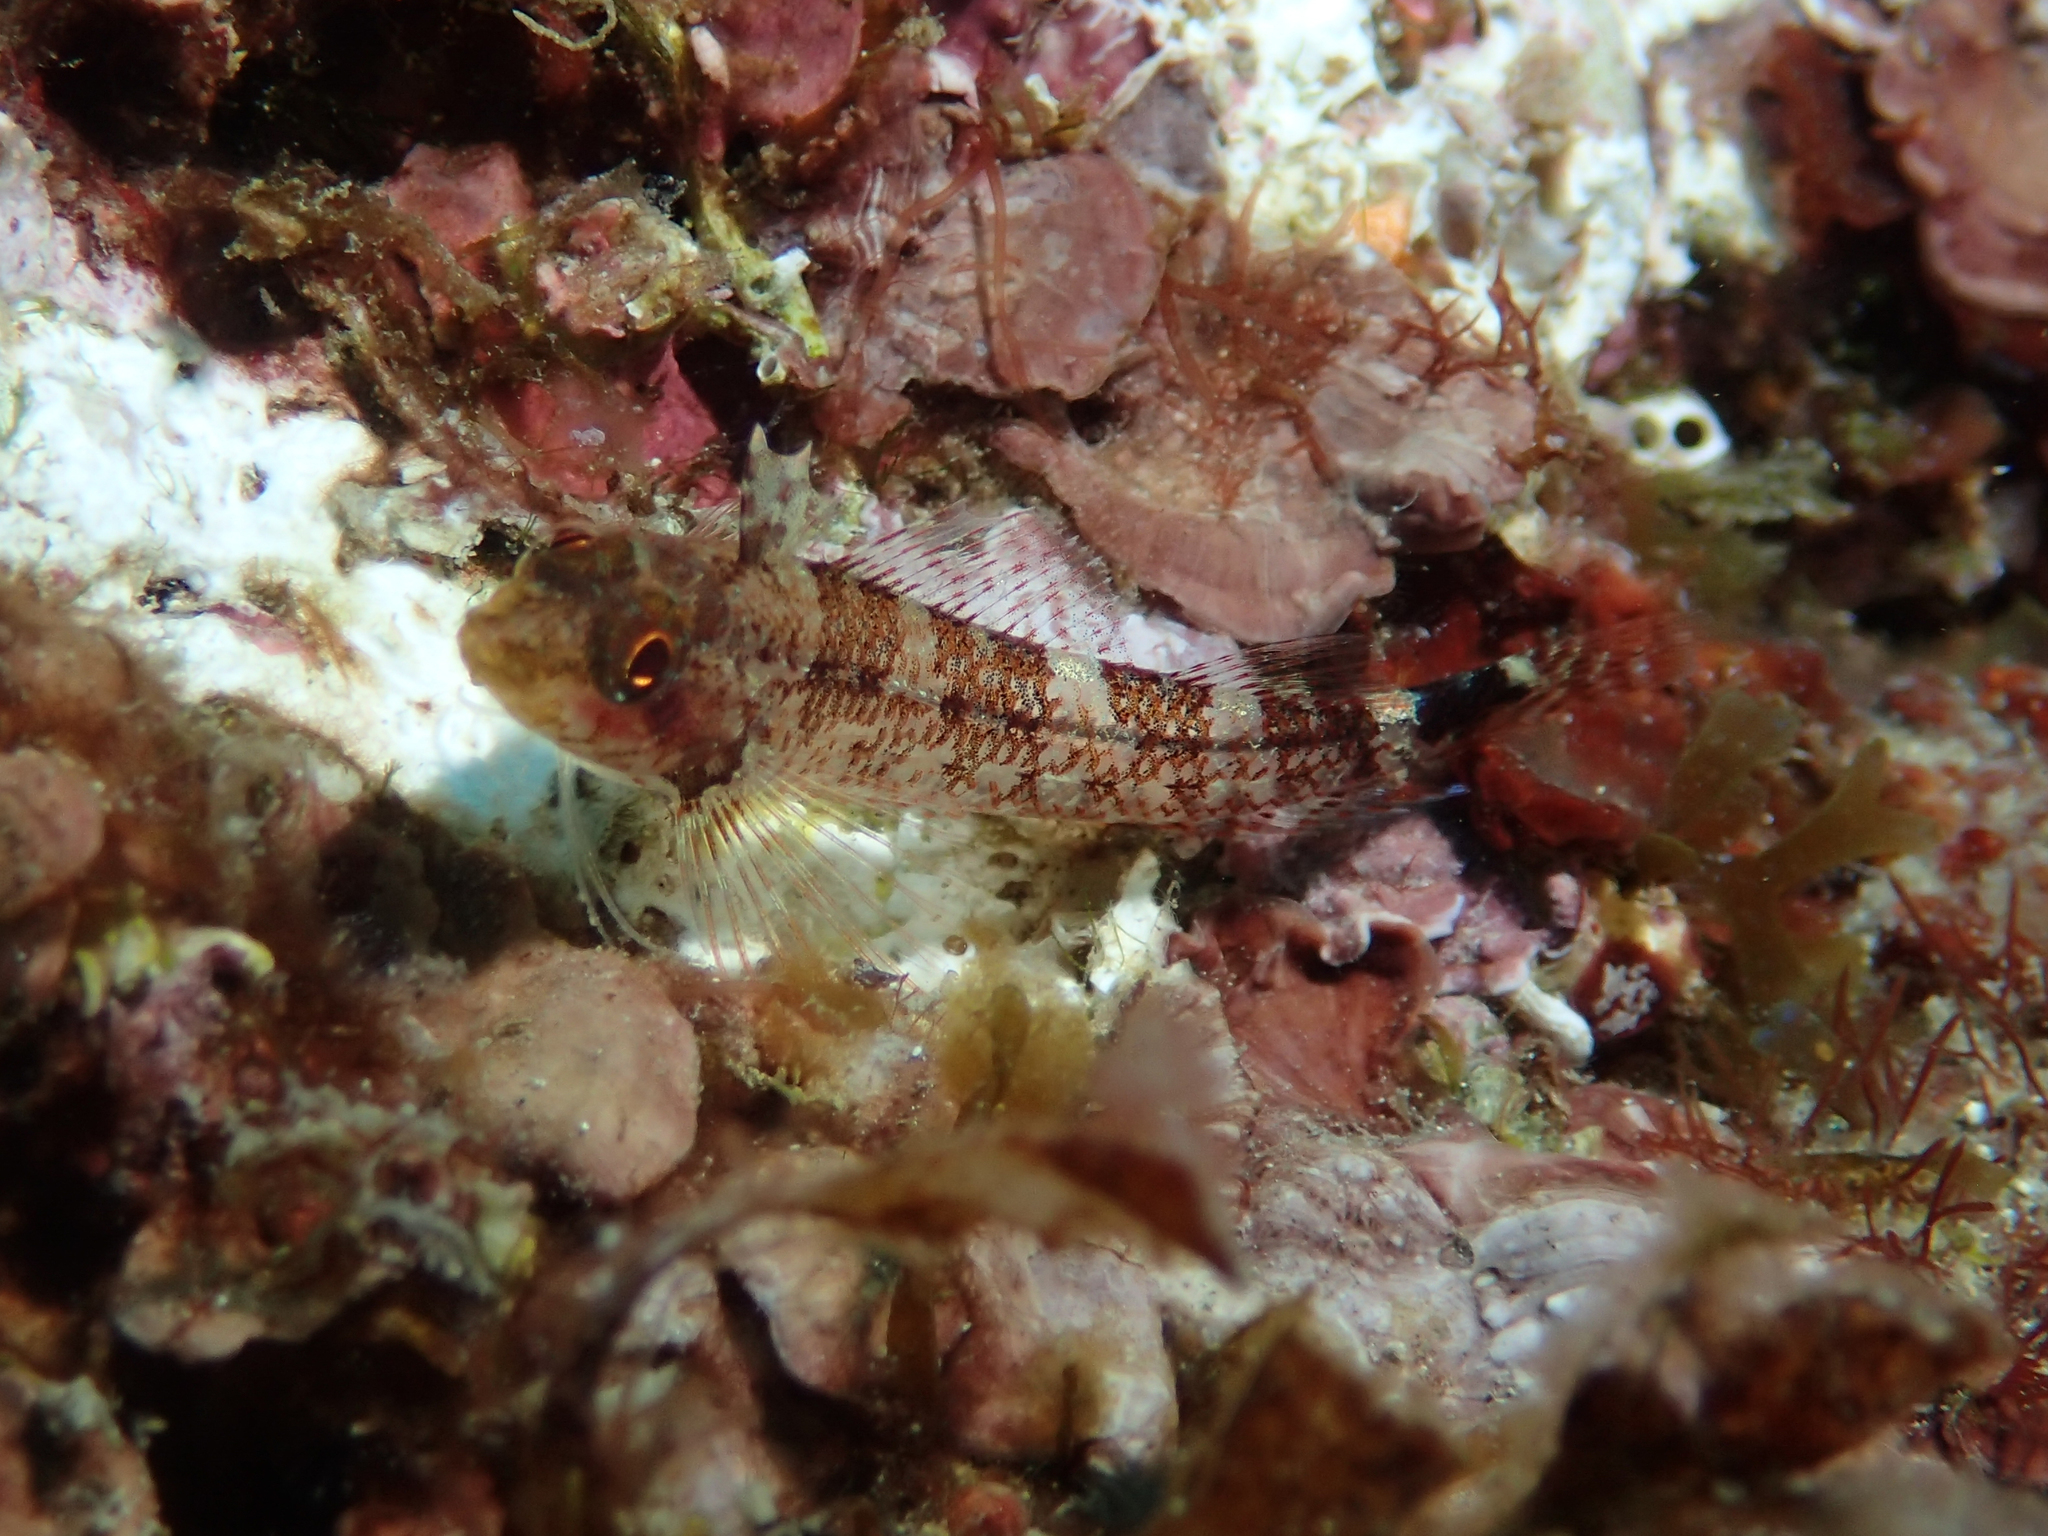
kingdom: Animalia
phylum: Chordata
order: Perciformes
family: Tripterygiidae
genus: Tripterygion
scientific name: Tripterygion delaisi
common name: Black-face blenny
